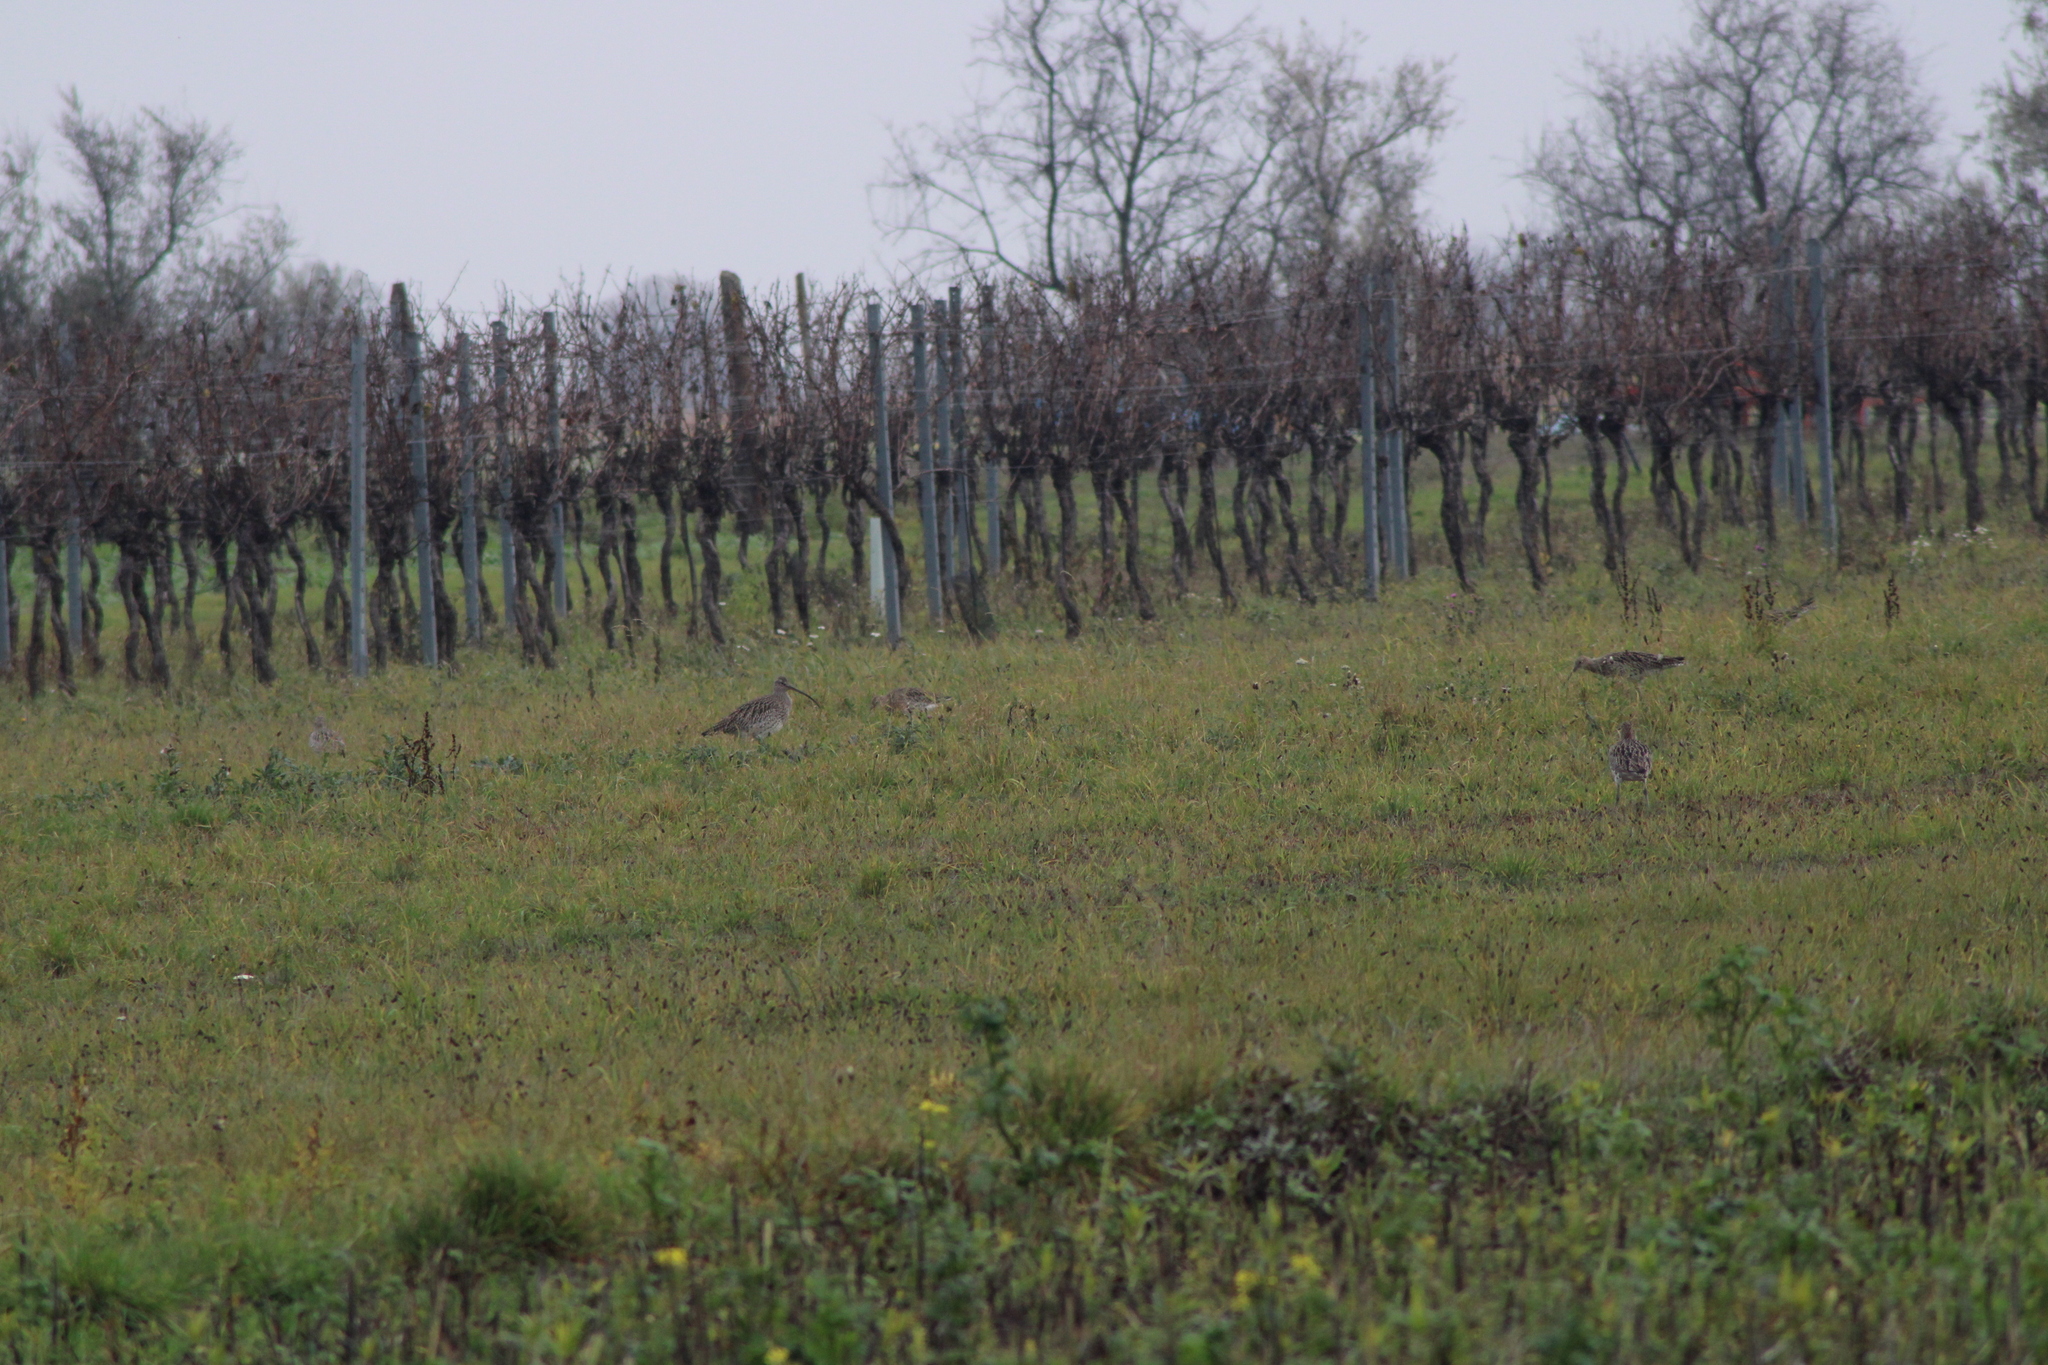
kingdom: Animalia
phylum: Chordata
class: Aves
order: Charadriiformes
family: Scolopacidae
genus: Numenius
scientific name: Numenius arquata
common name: Eurasian curlew
